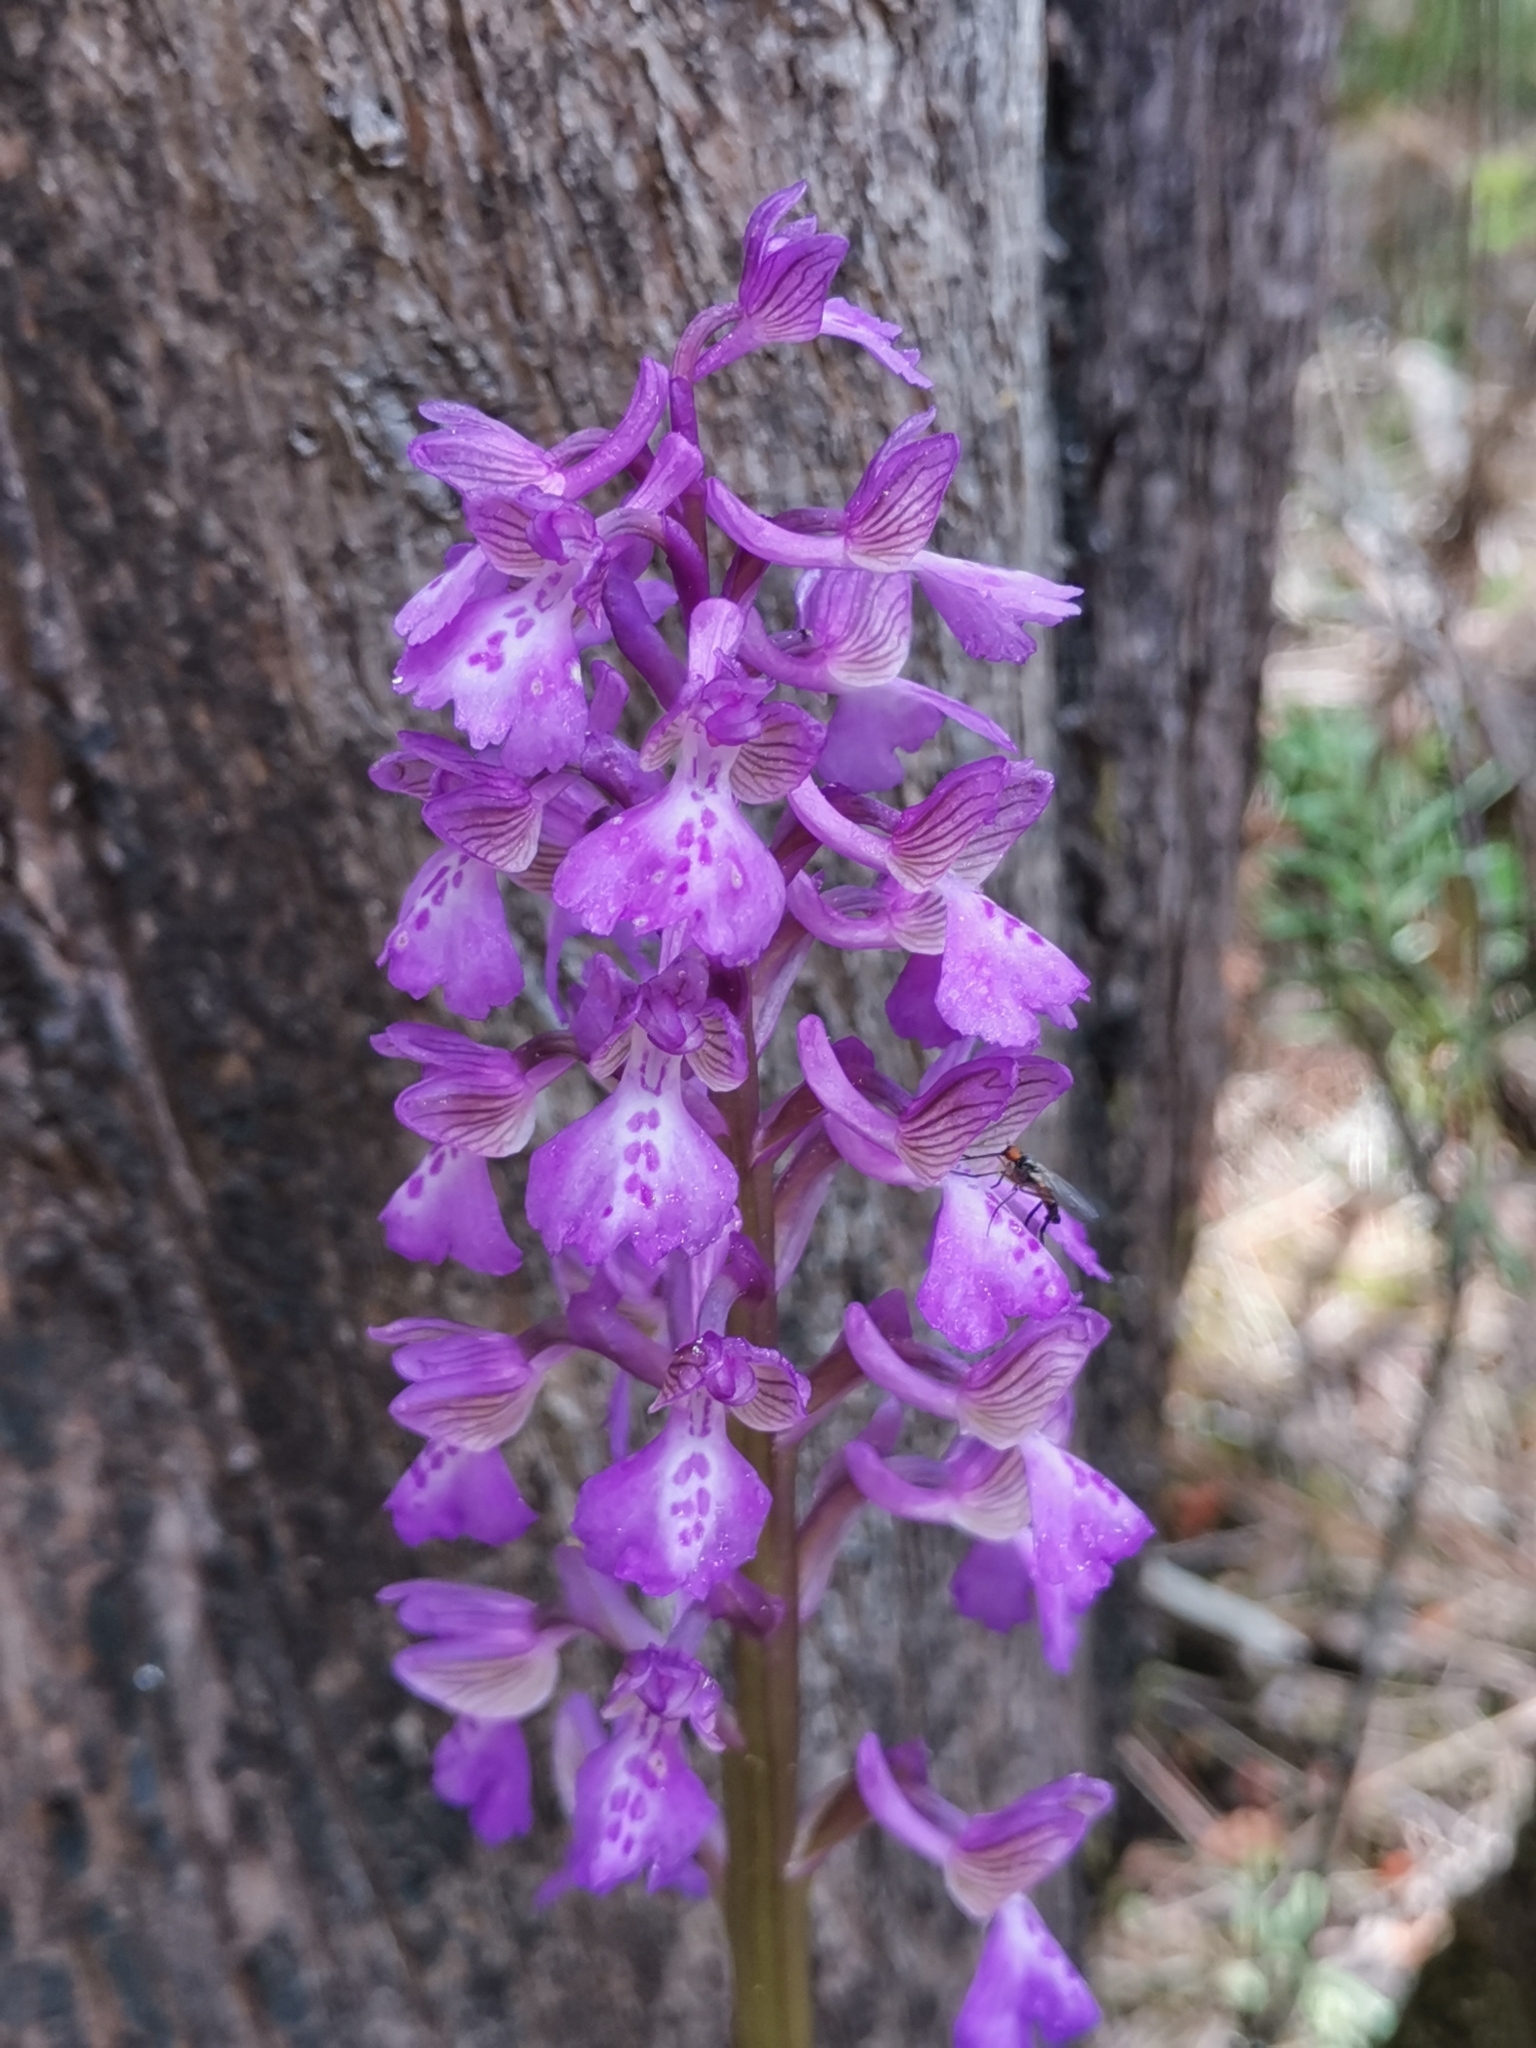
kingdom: Plantae
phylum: Tracheophyta
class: Liliopsida
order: Asparagales
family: Orchidaceae
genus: Anacamptis
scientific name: Anacamptis morio
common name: Green-winged orchid
